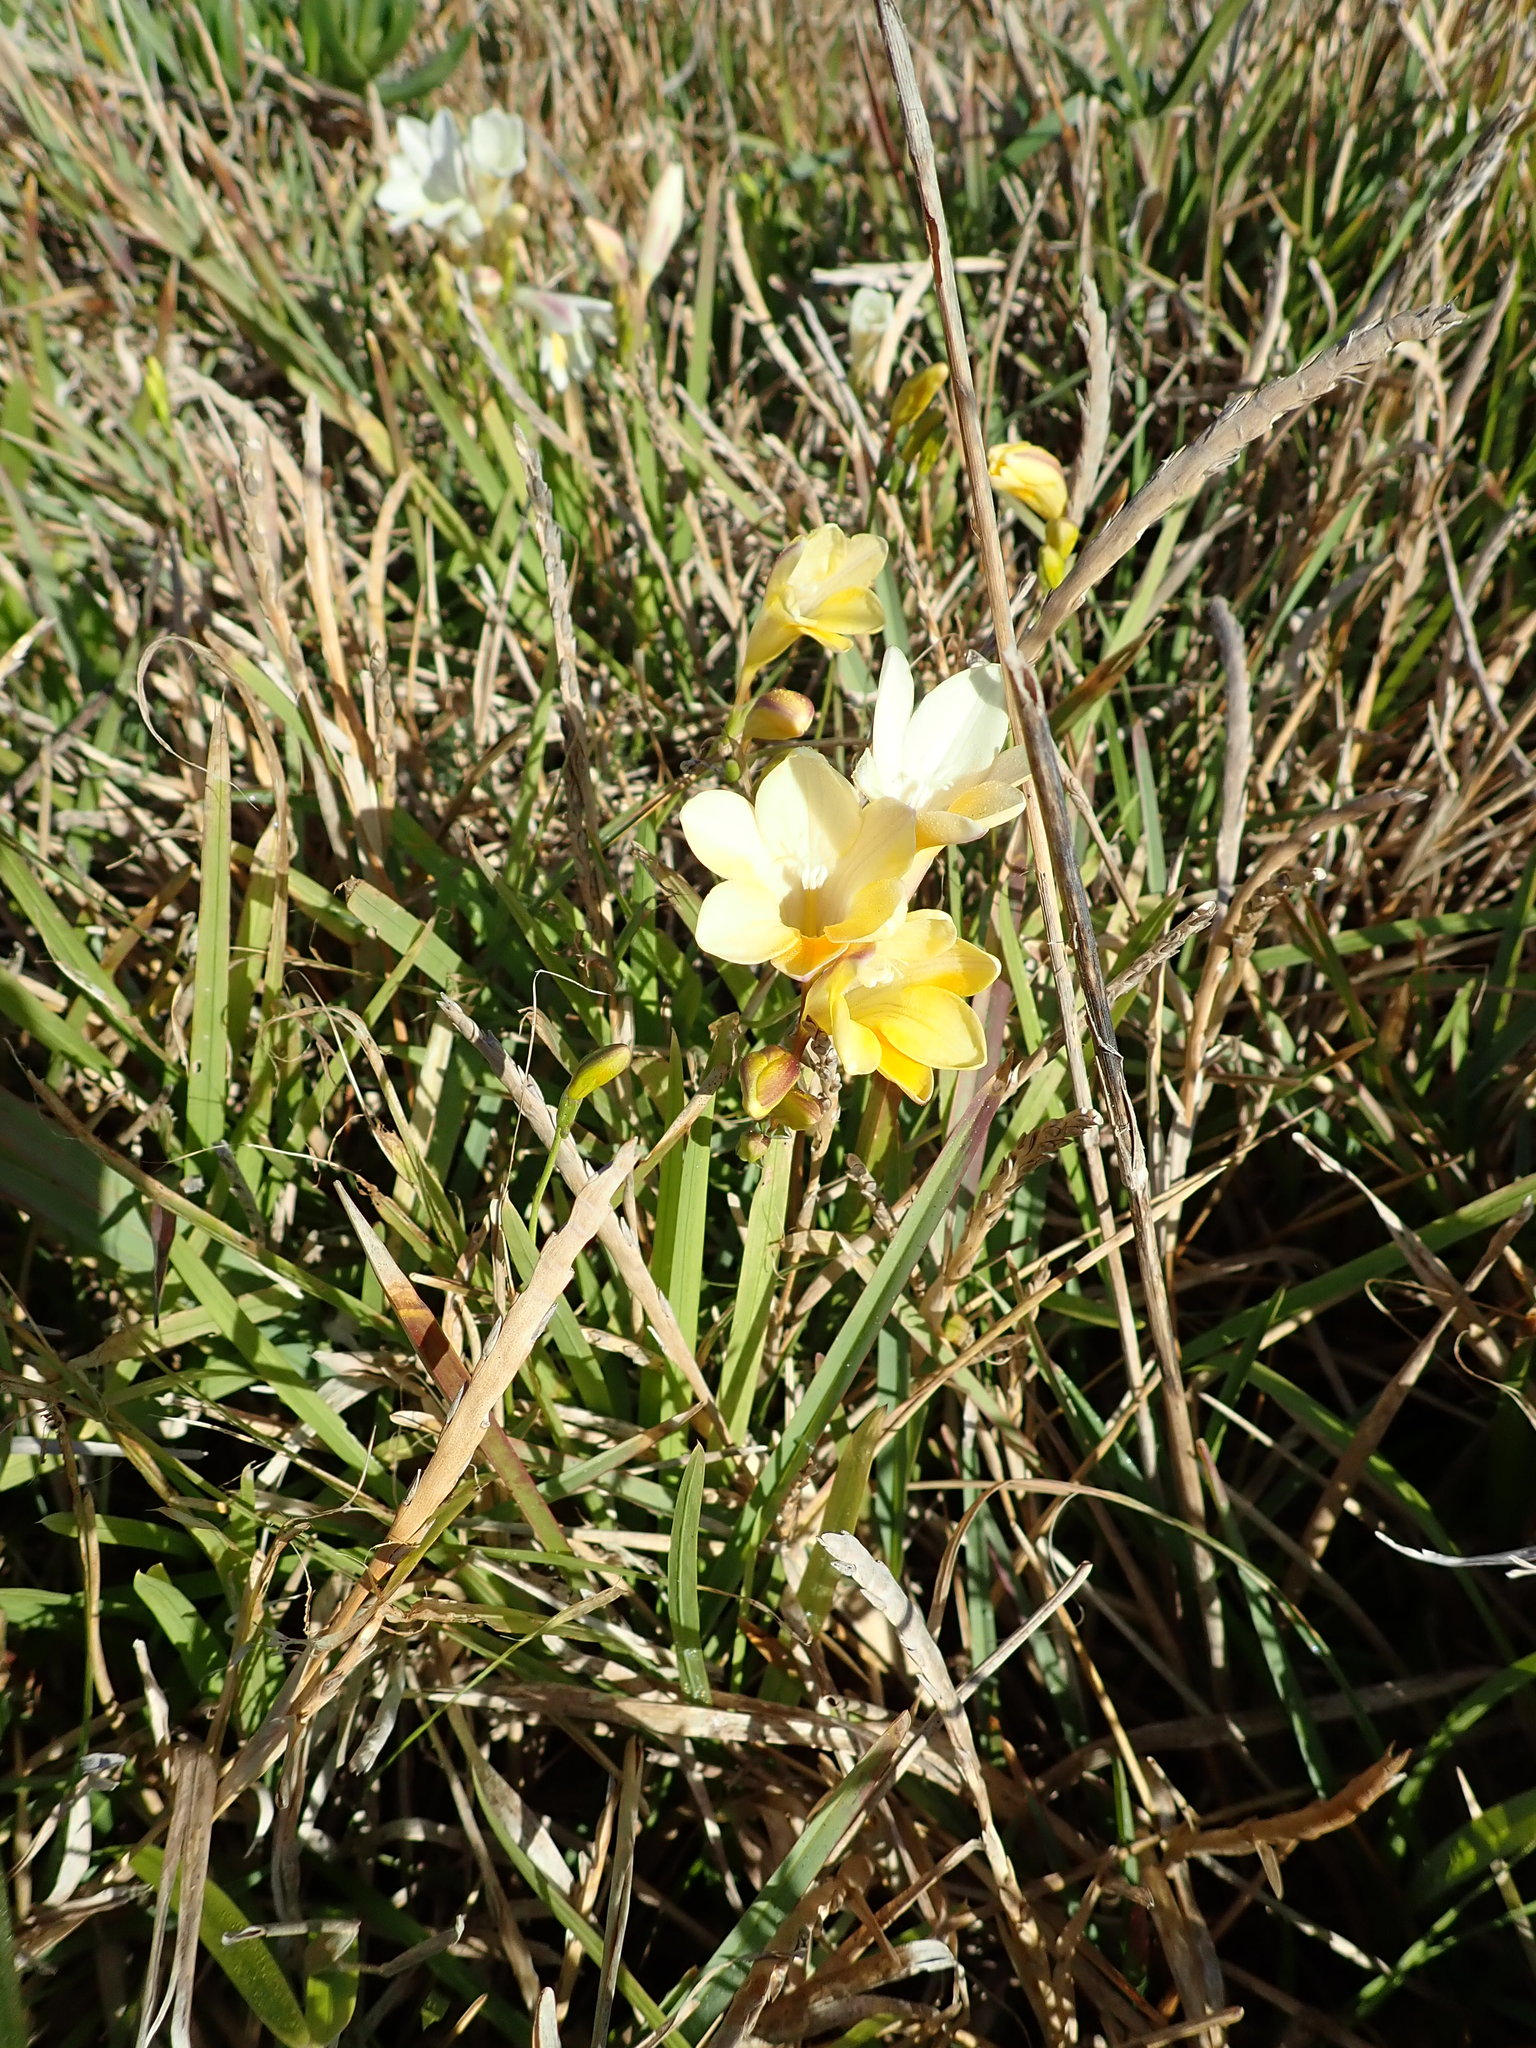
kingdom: Plantae
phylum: Tracheophyta
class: Liliopsida
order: Asparagales
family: Iridaceae
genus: Freesia
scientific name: Freesia leichtlinii
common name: Freesia
